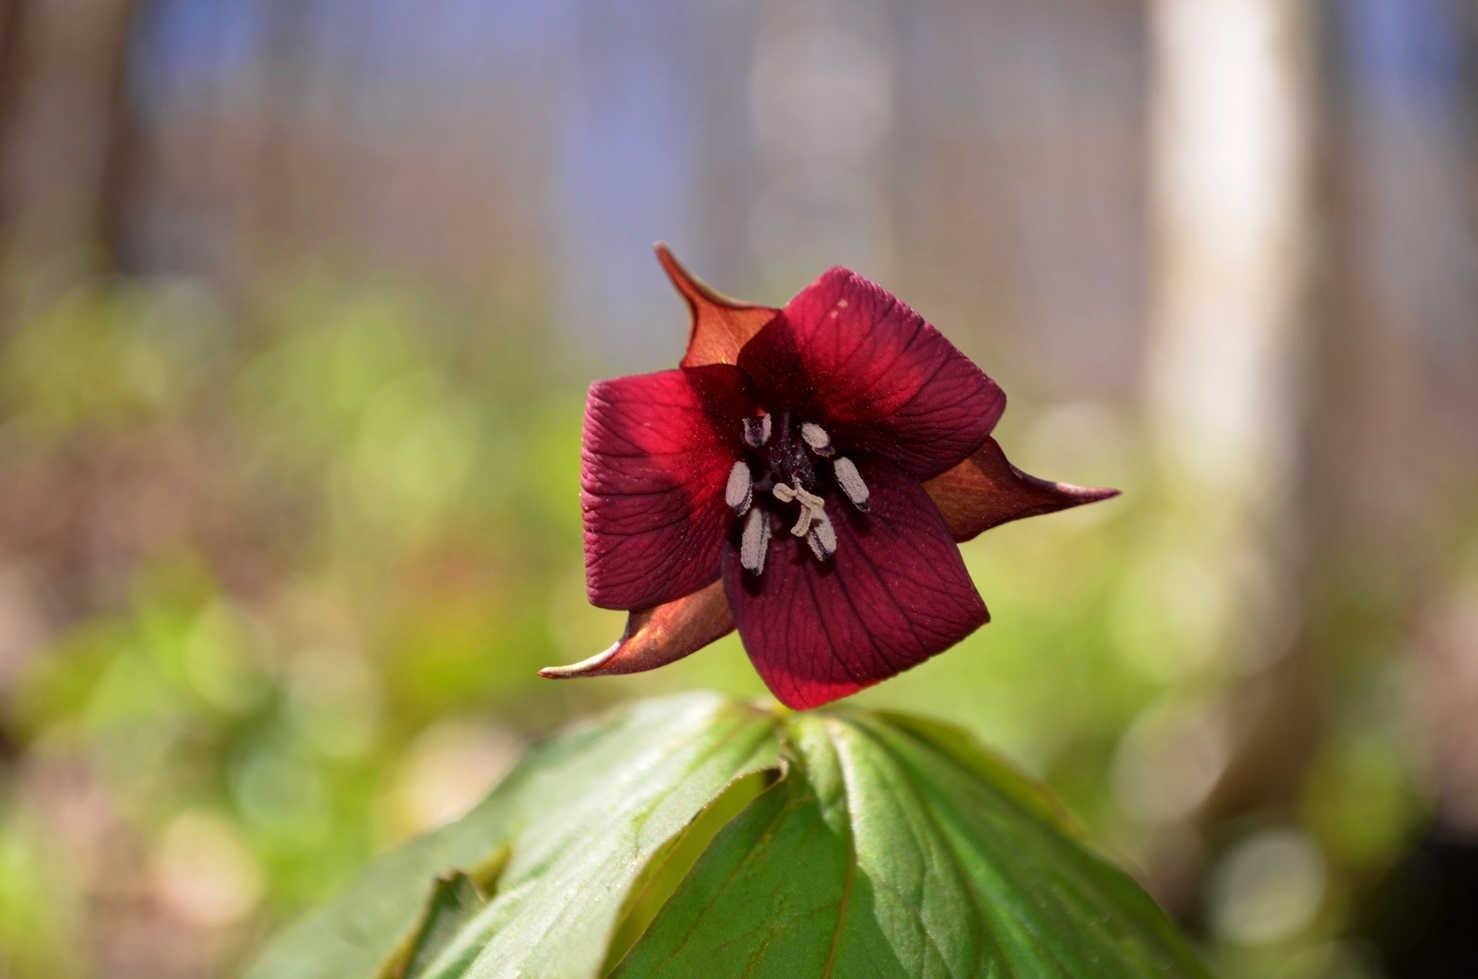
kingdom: Plantae
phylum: Tracheophyta
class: Liliopsida
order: Liliales
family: Melanthiaceae
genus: Trillium
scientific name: Trillium sulcatum
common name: Barksdale trillium
